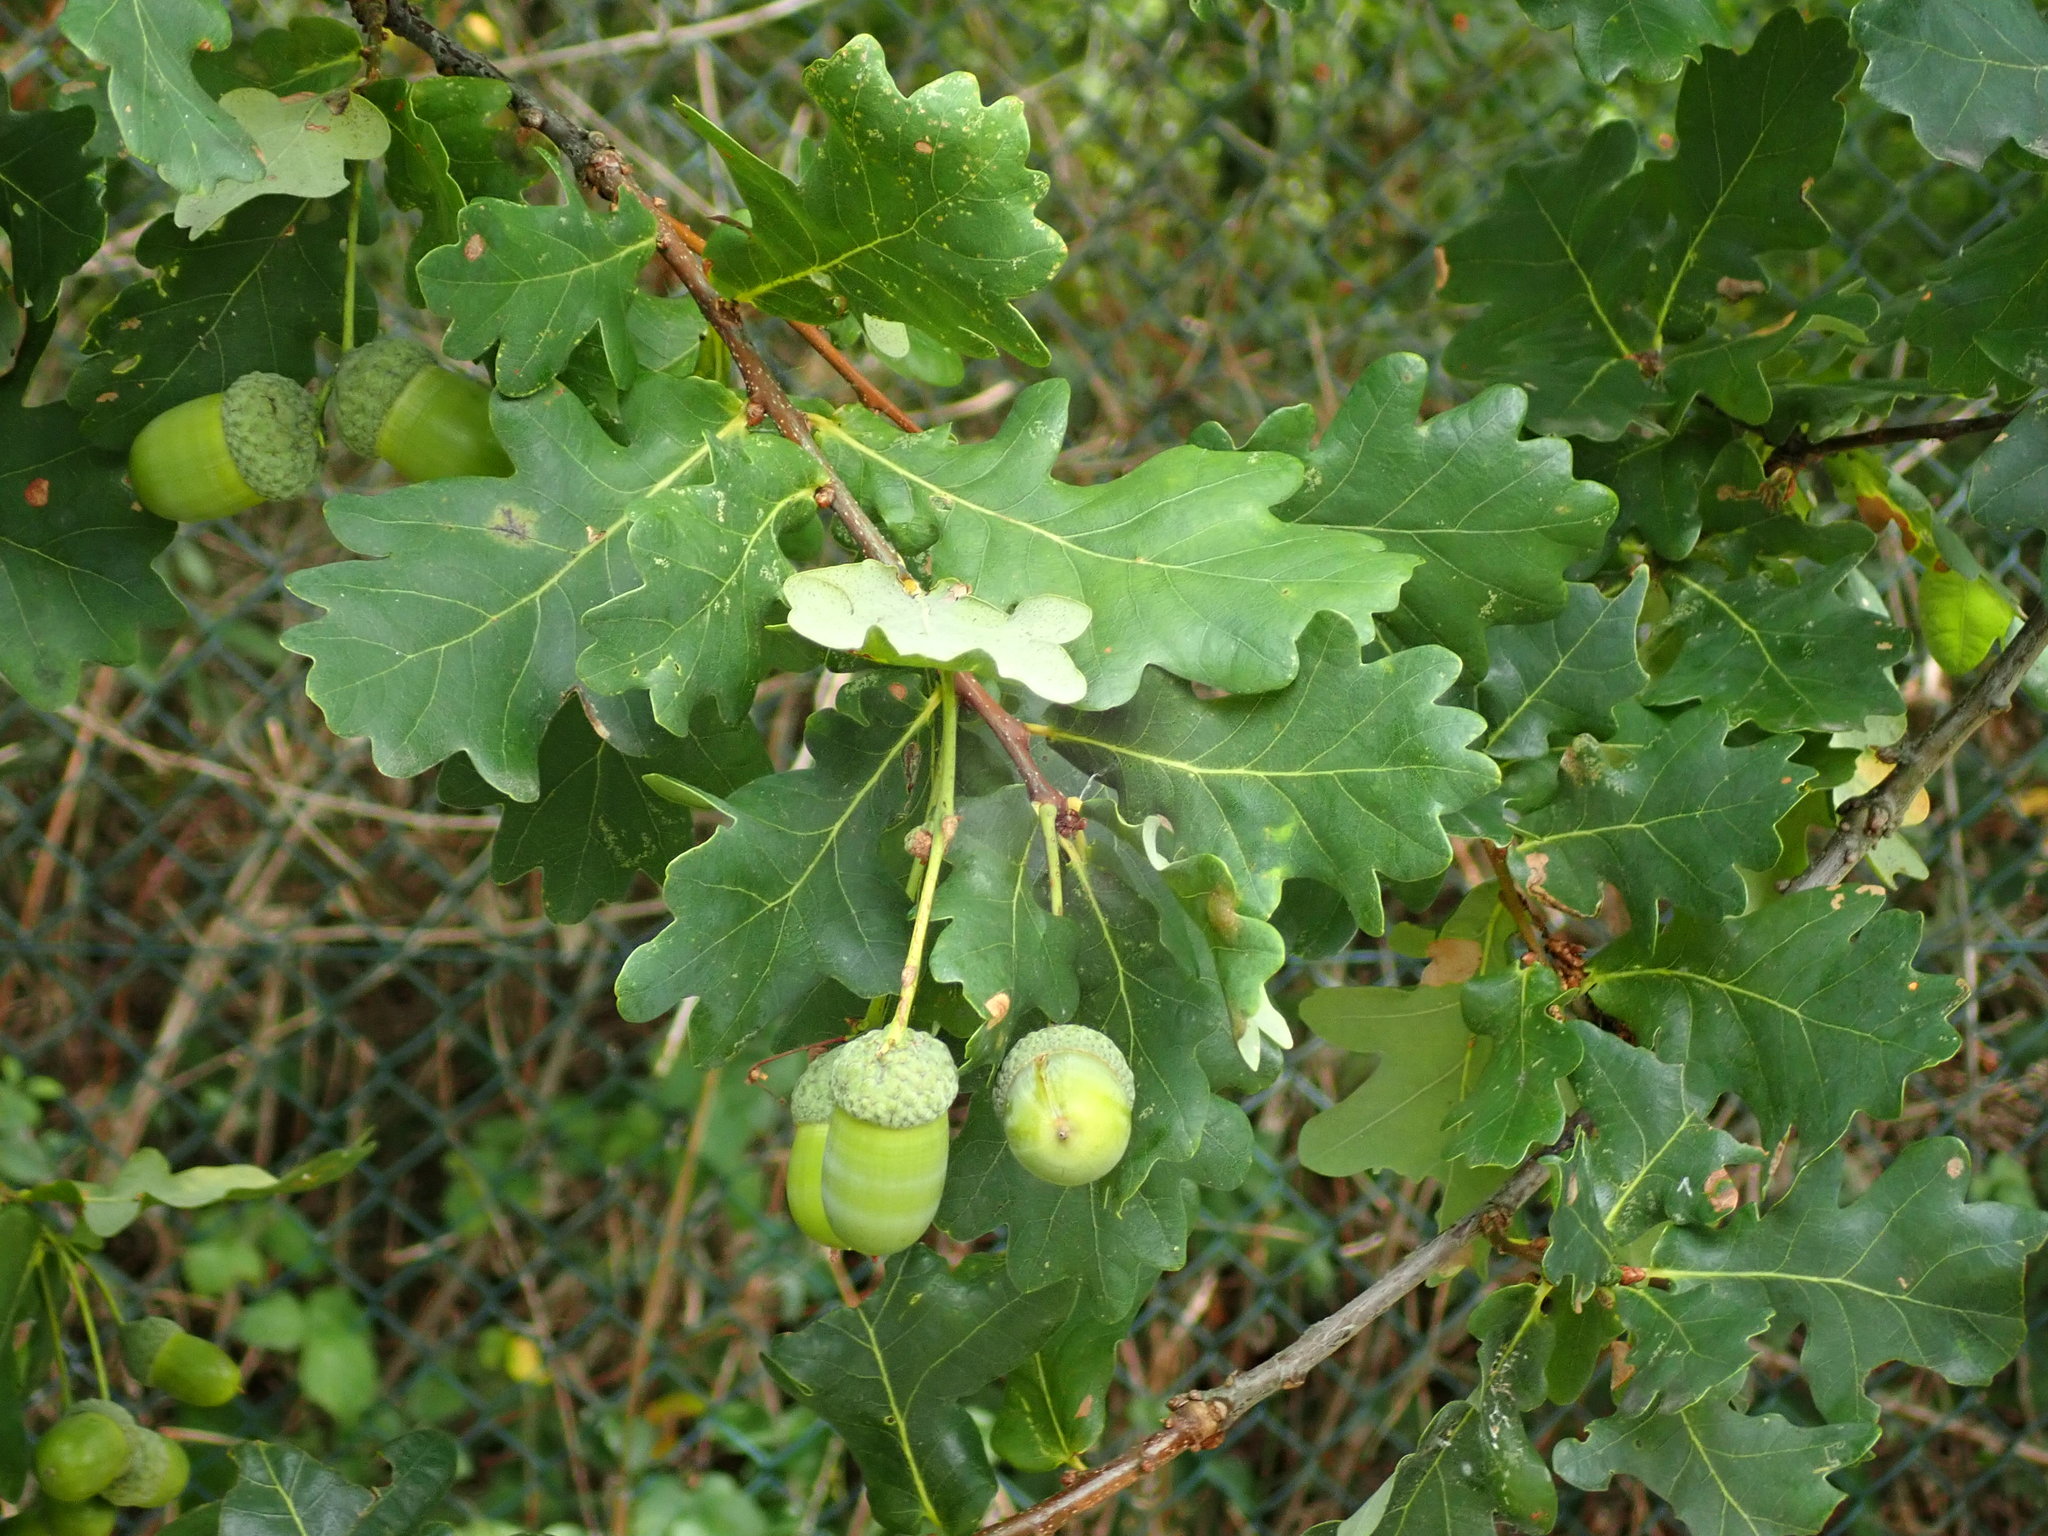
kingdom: Plantae
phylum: Tracheophyta
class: Magnoliopsida
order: Fagales
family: Fagaceae
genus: Quercus
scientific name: Quercus robur
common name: Pedunculate oak
